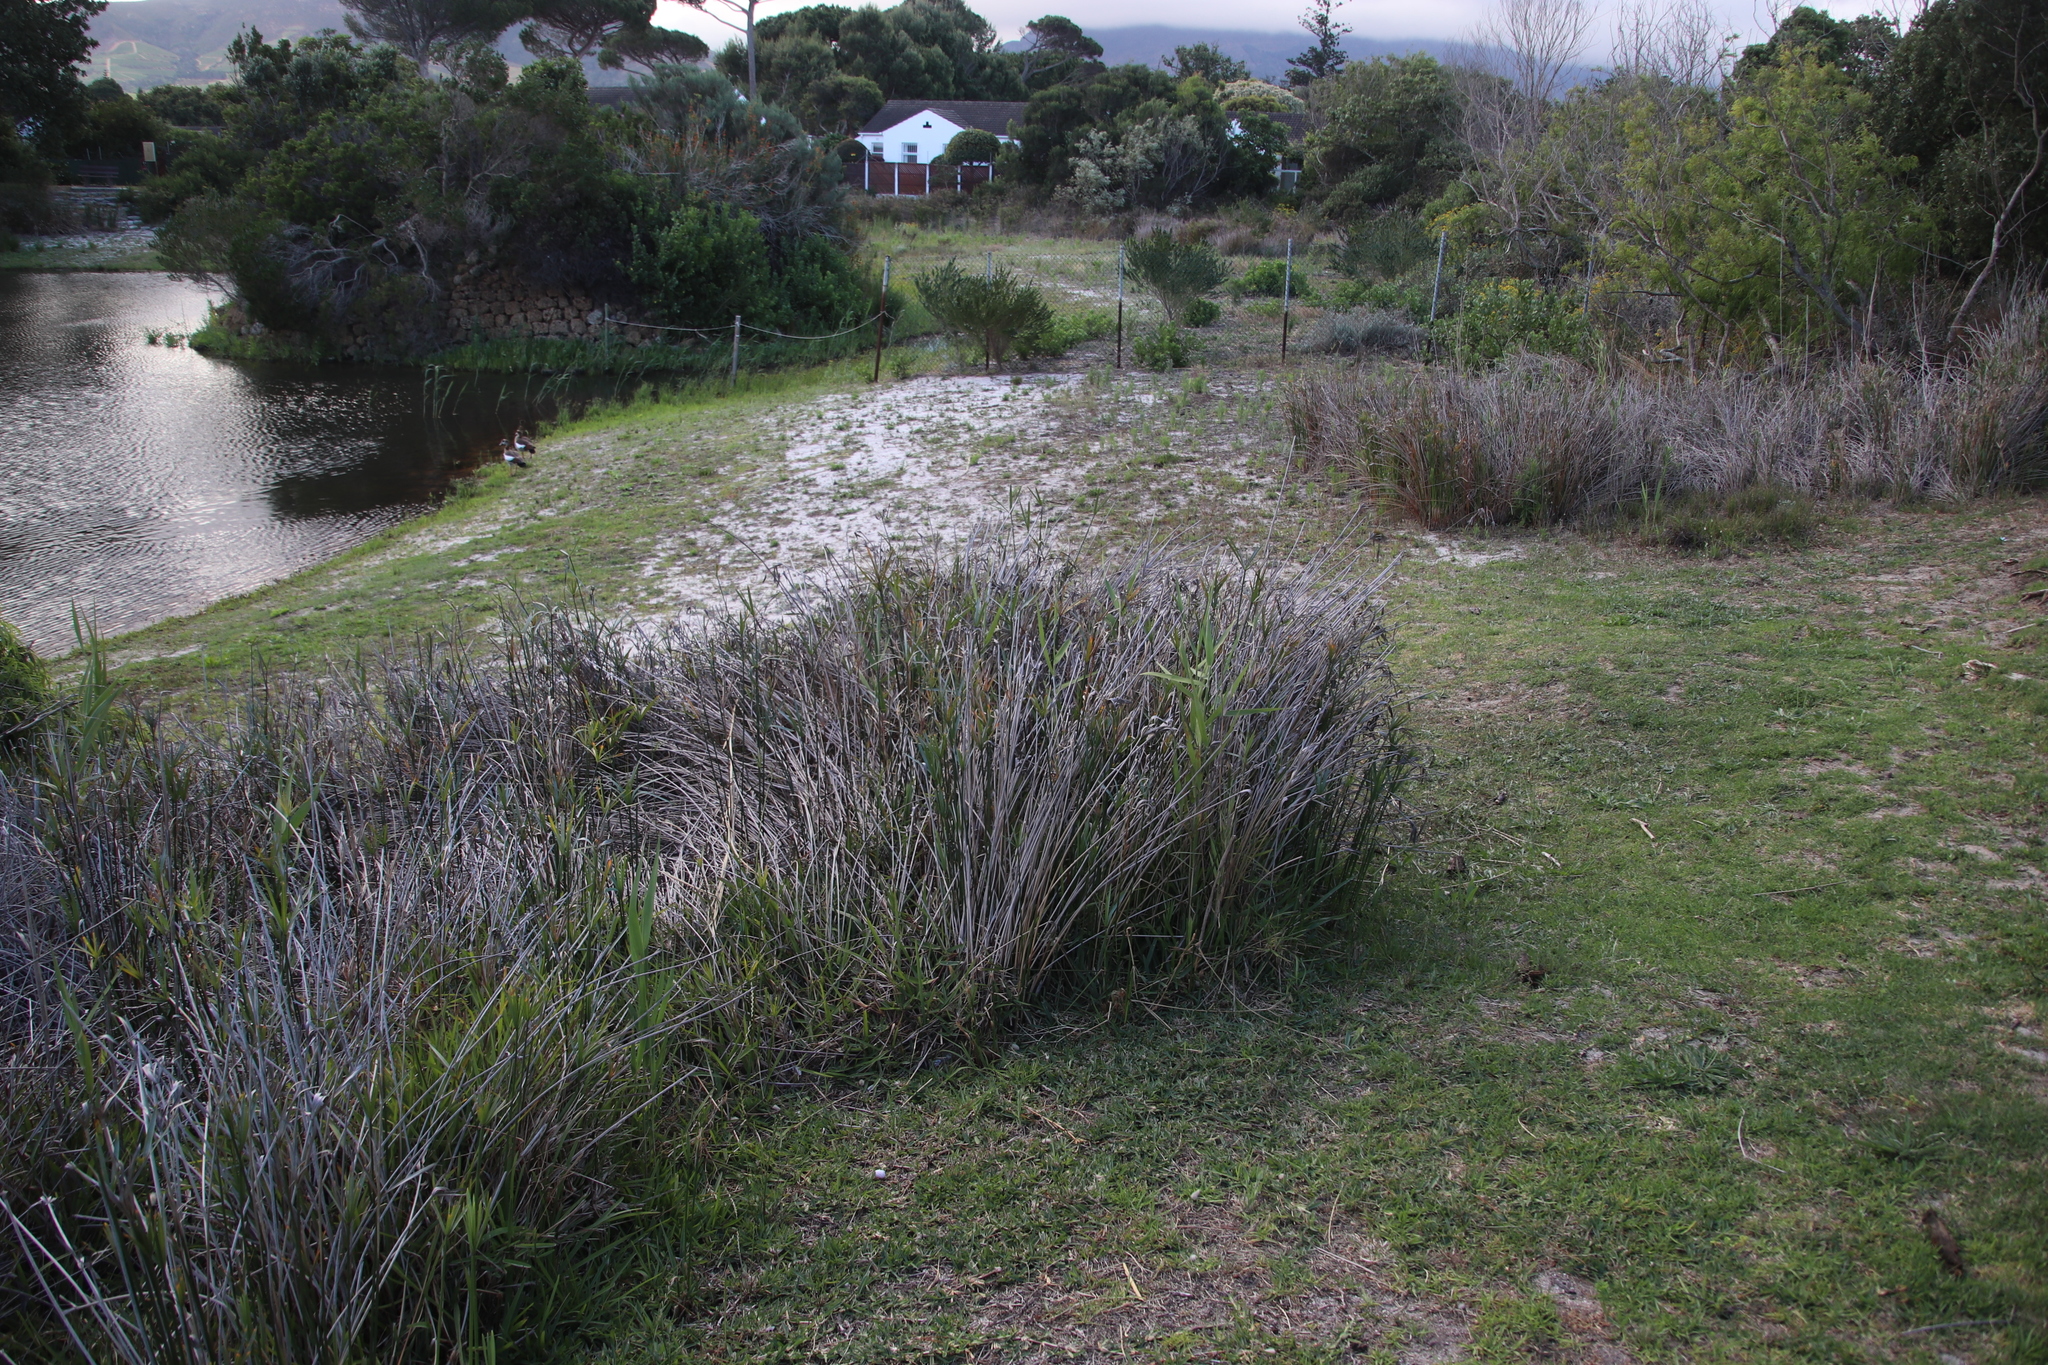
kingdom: Plantae
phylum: Tracheophyta
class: Liliopsida
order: Poales
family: Cyperaceae
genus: Cyperus
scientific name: Cyperus textilis
